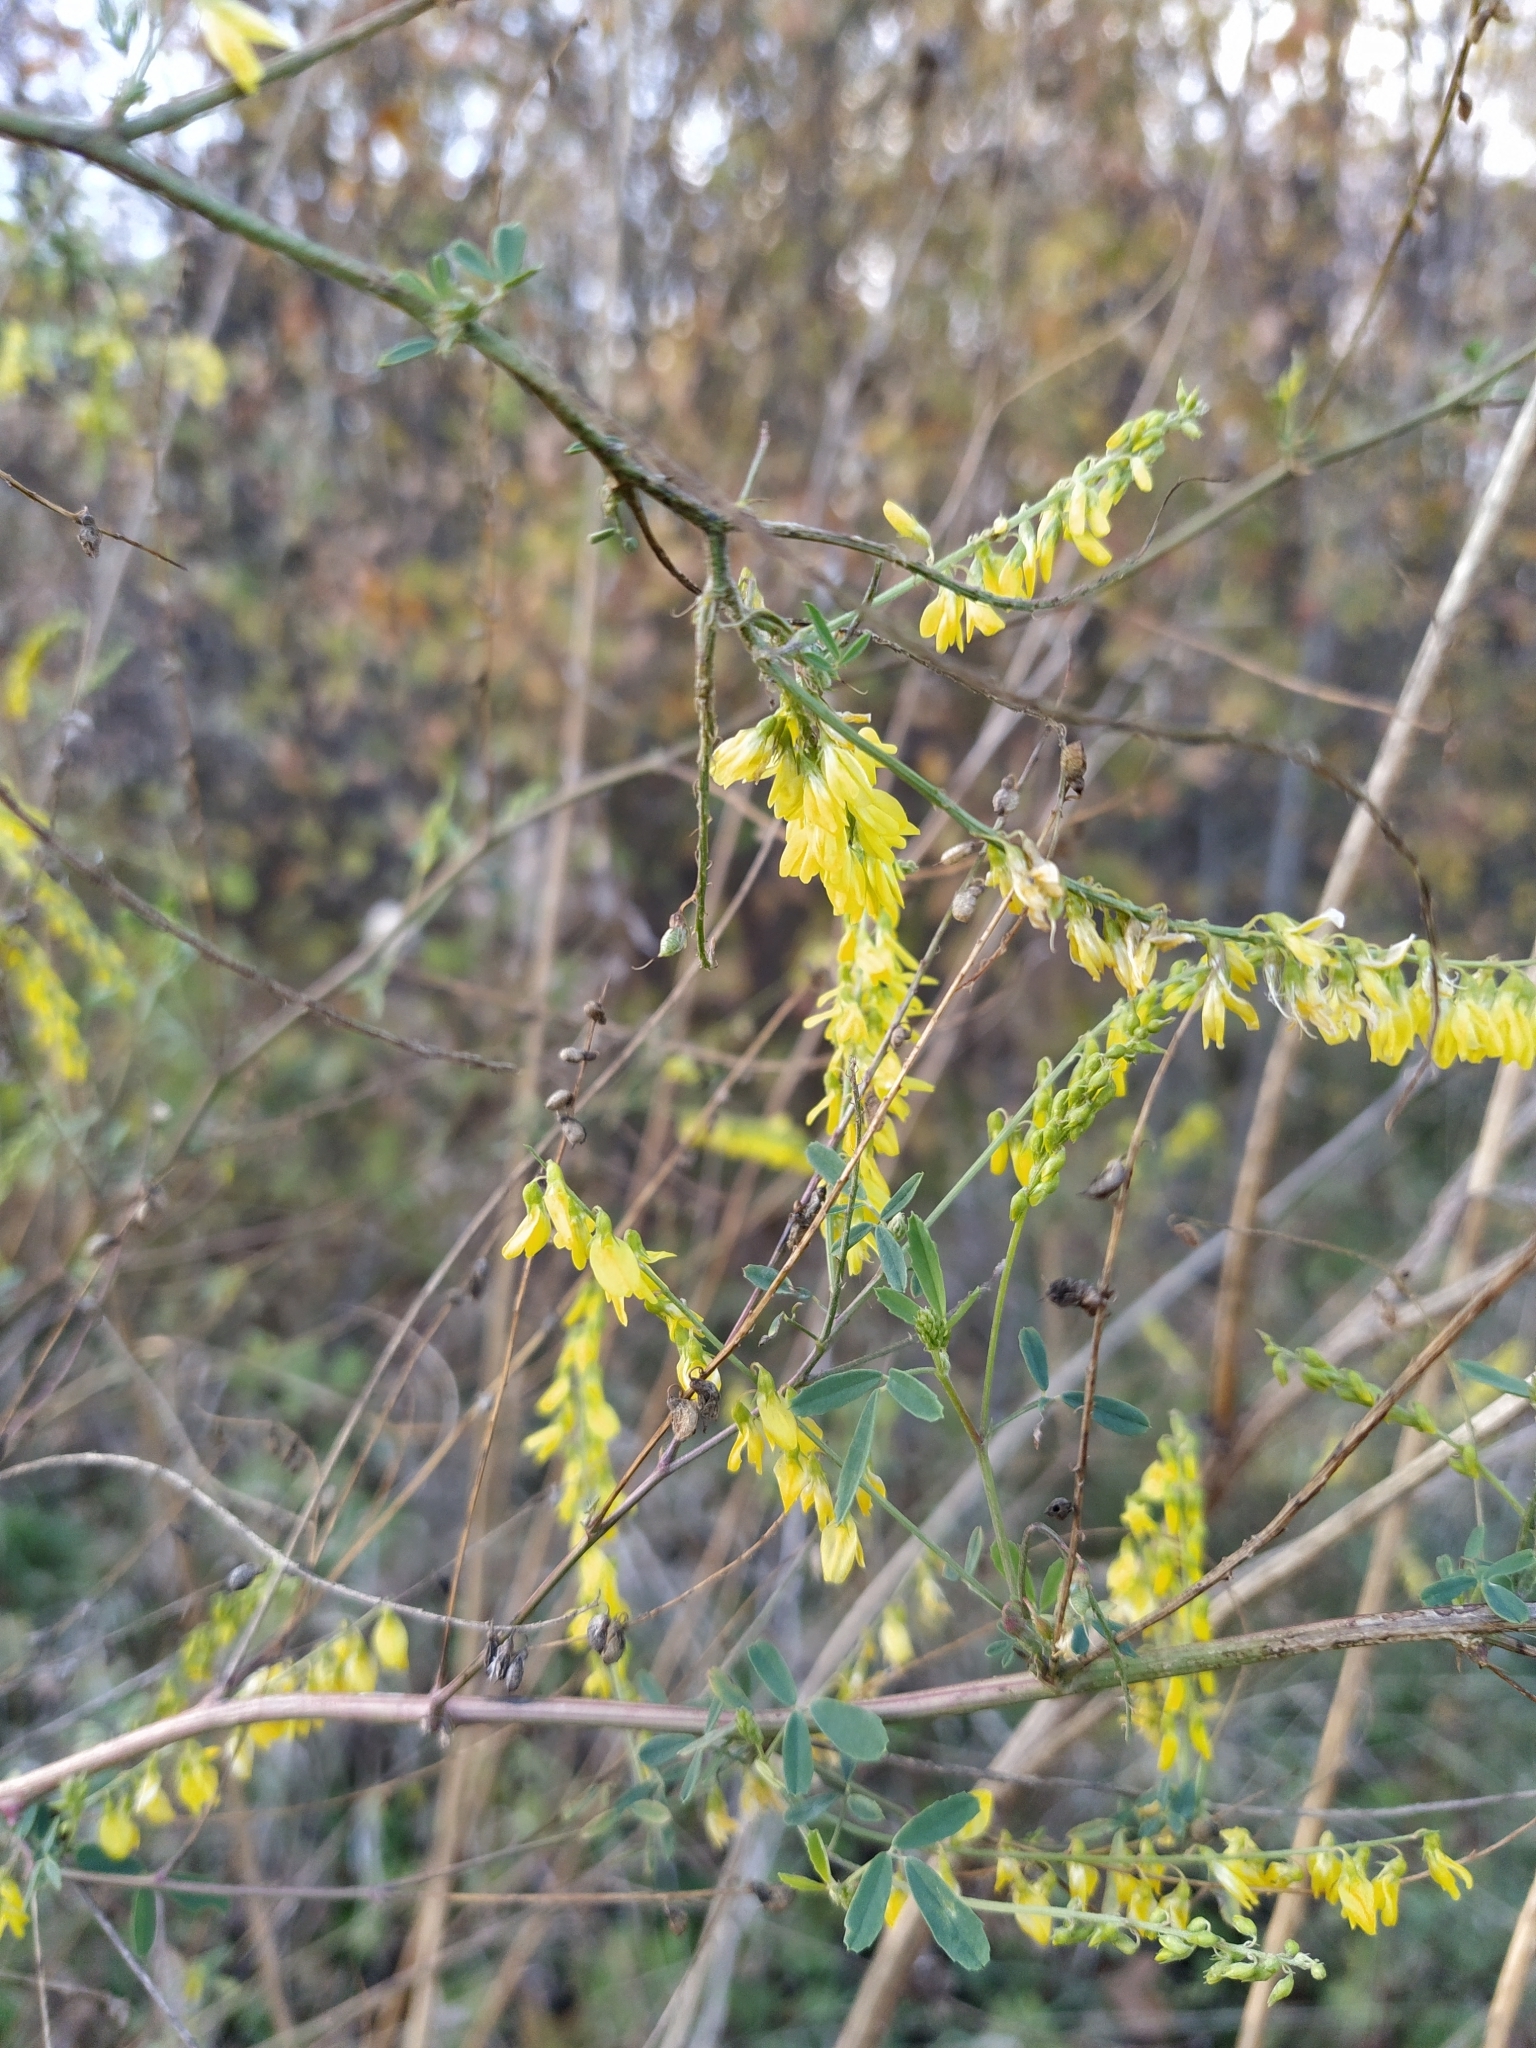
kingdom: Plantae
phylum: Tracheophyta
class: Magnoliopsida
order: Fabales
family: Fabaceae
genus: Melilotus
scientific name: Melilotus officinalis
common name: Sweetclover
